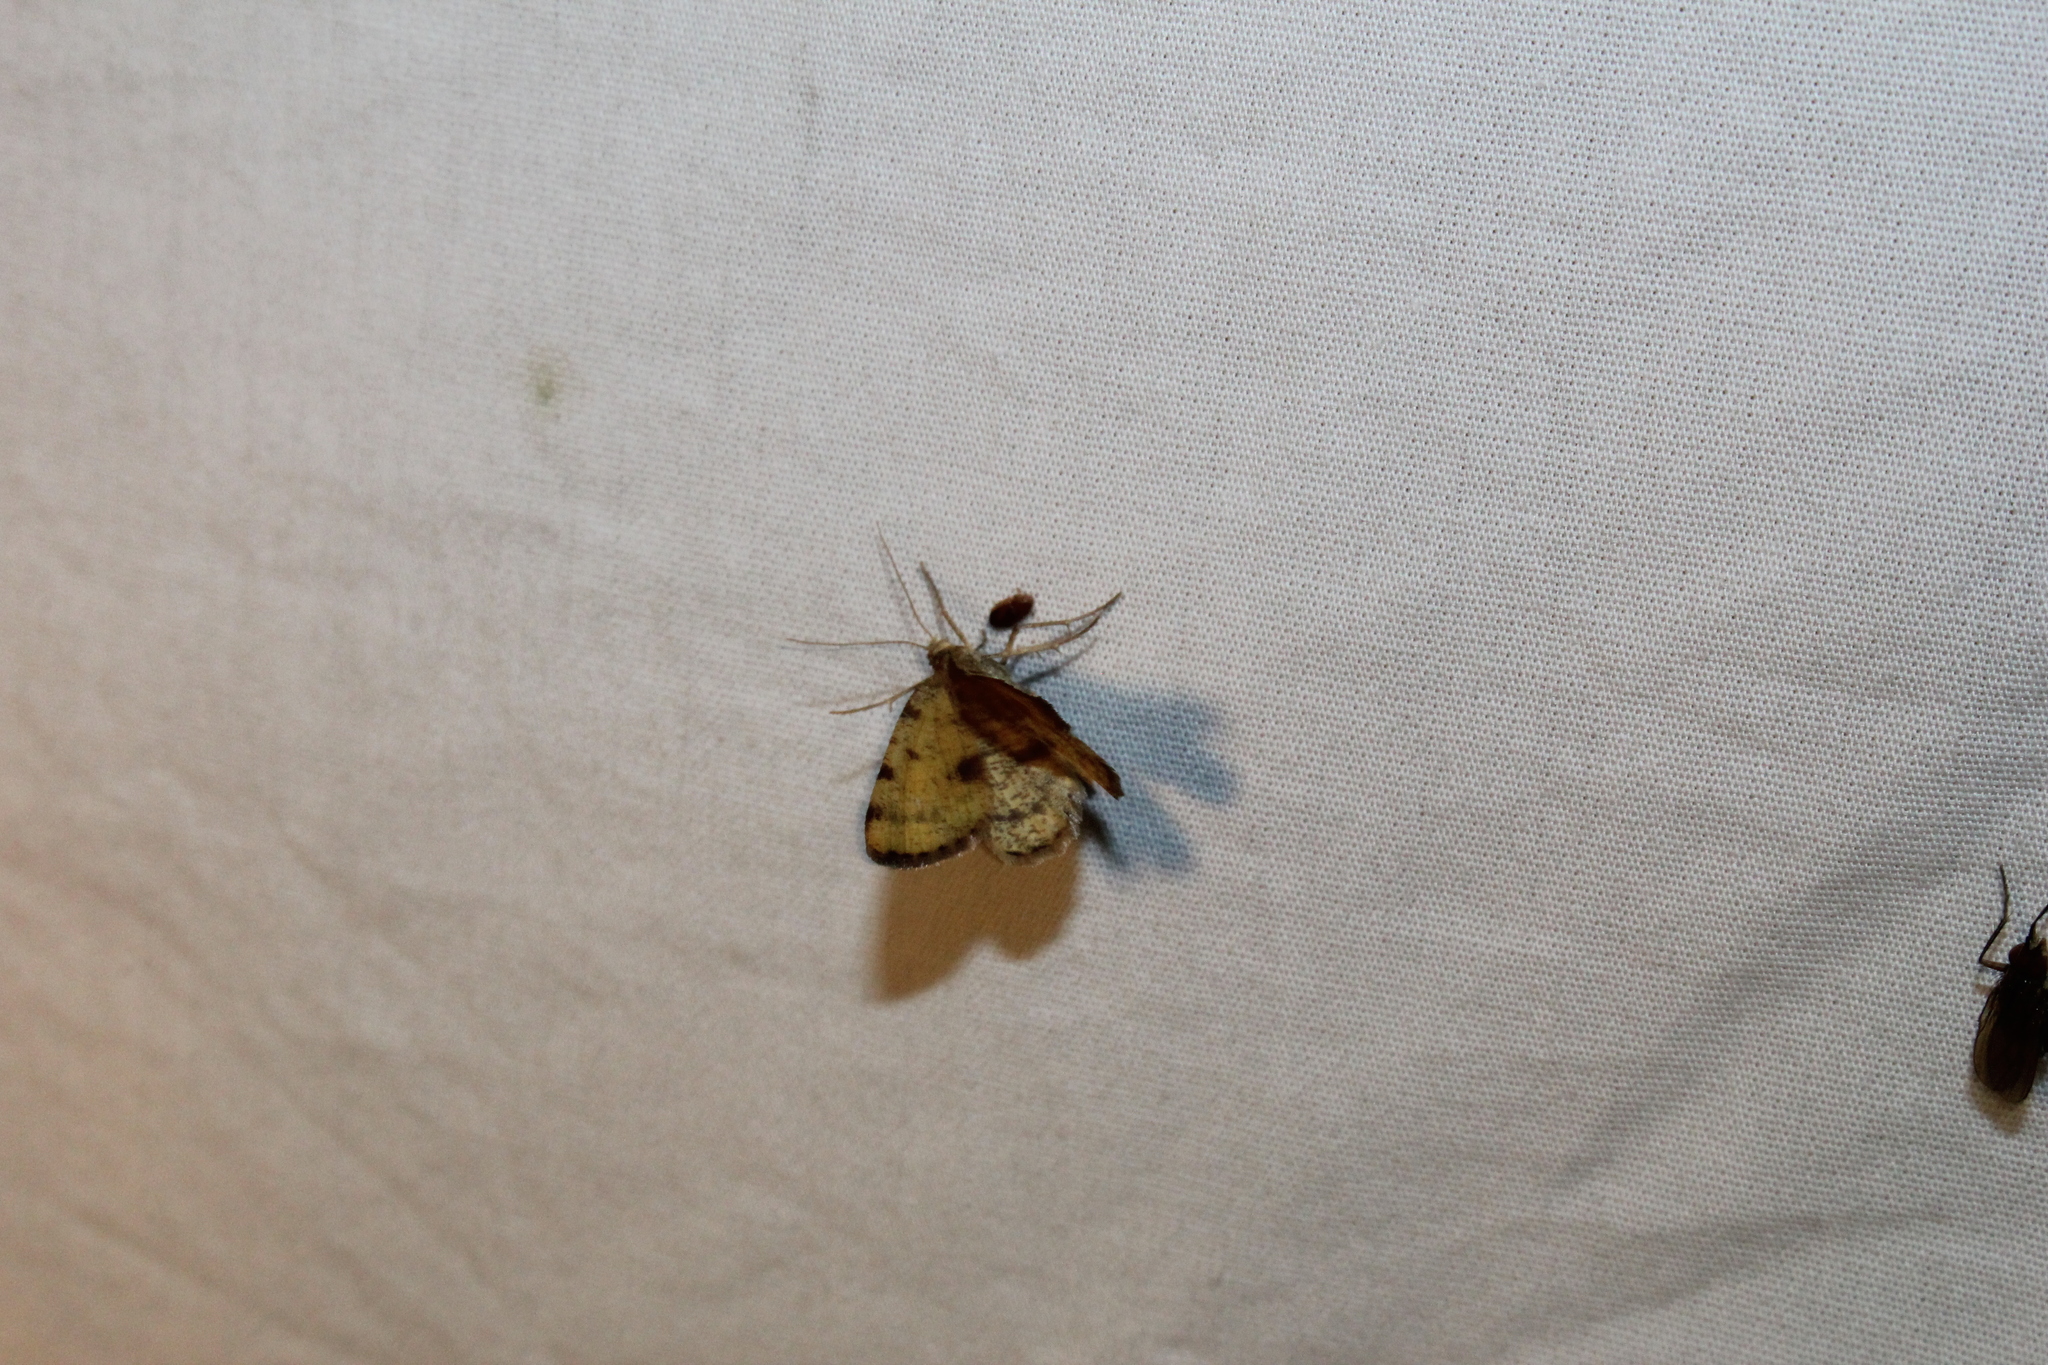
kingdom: Animalia
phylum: Arthropoda
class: Insecta
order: Lepidoptera
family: Geometridae
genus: Macaria
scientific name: Macaria brunneata
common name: Rannoch looper
